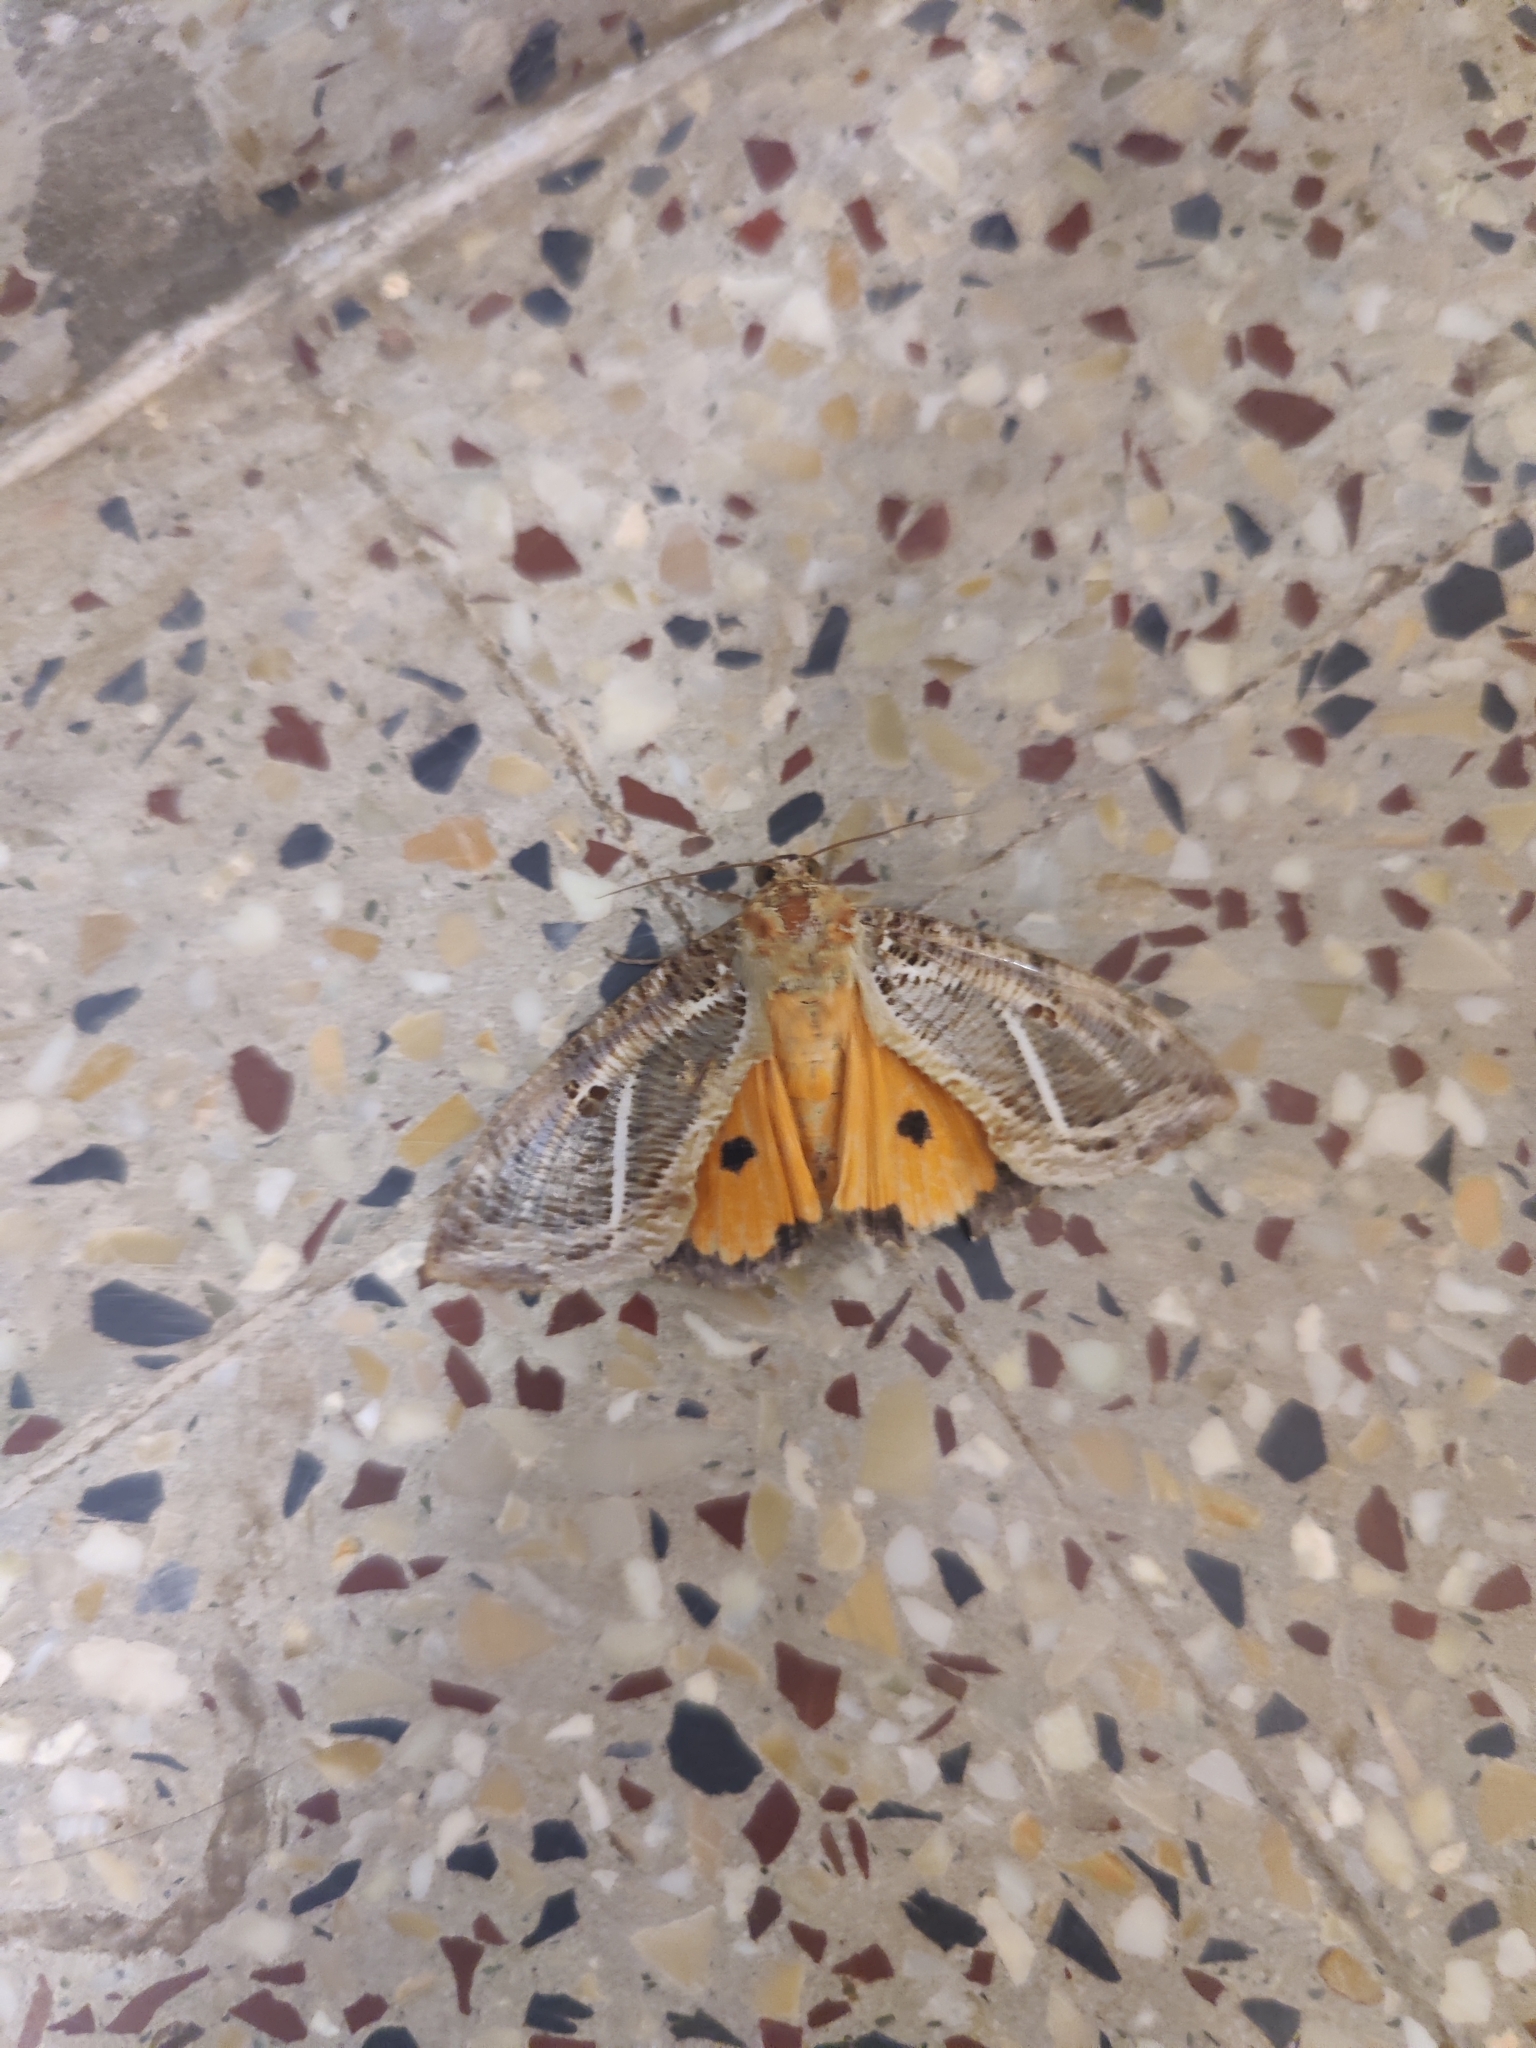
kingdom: Animalia
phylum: Arthropoda
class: Insecta
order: Lepidoptera
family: Erebidae
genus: Eudocima
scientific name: Eudocima materna
